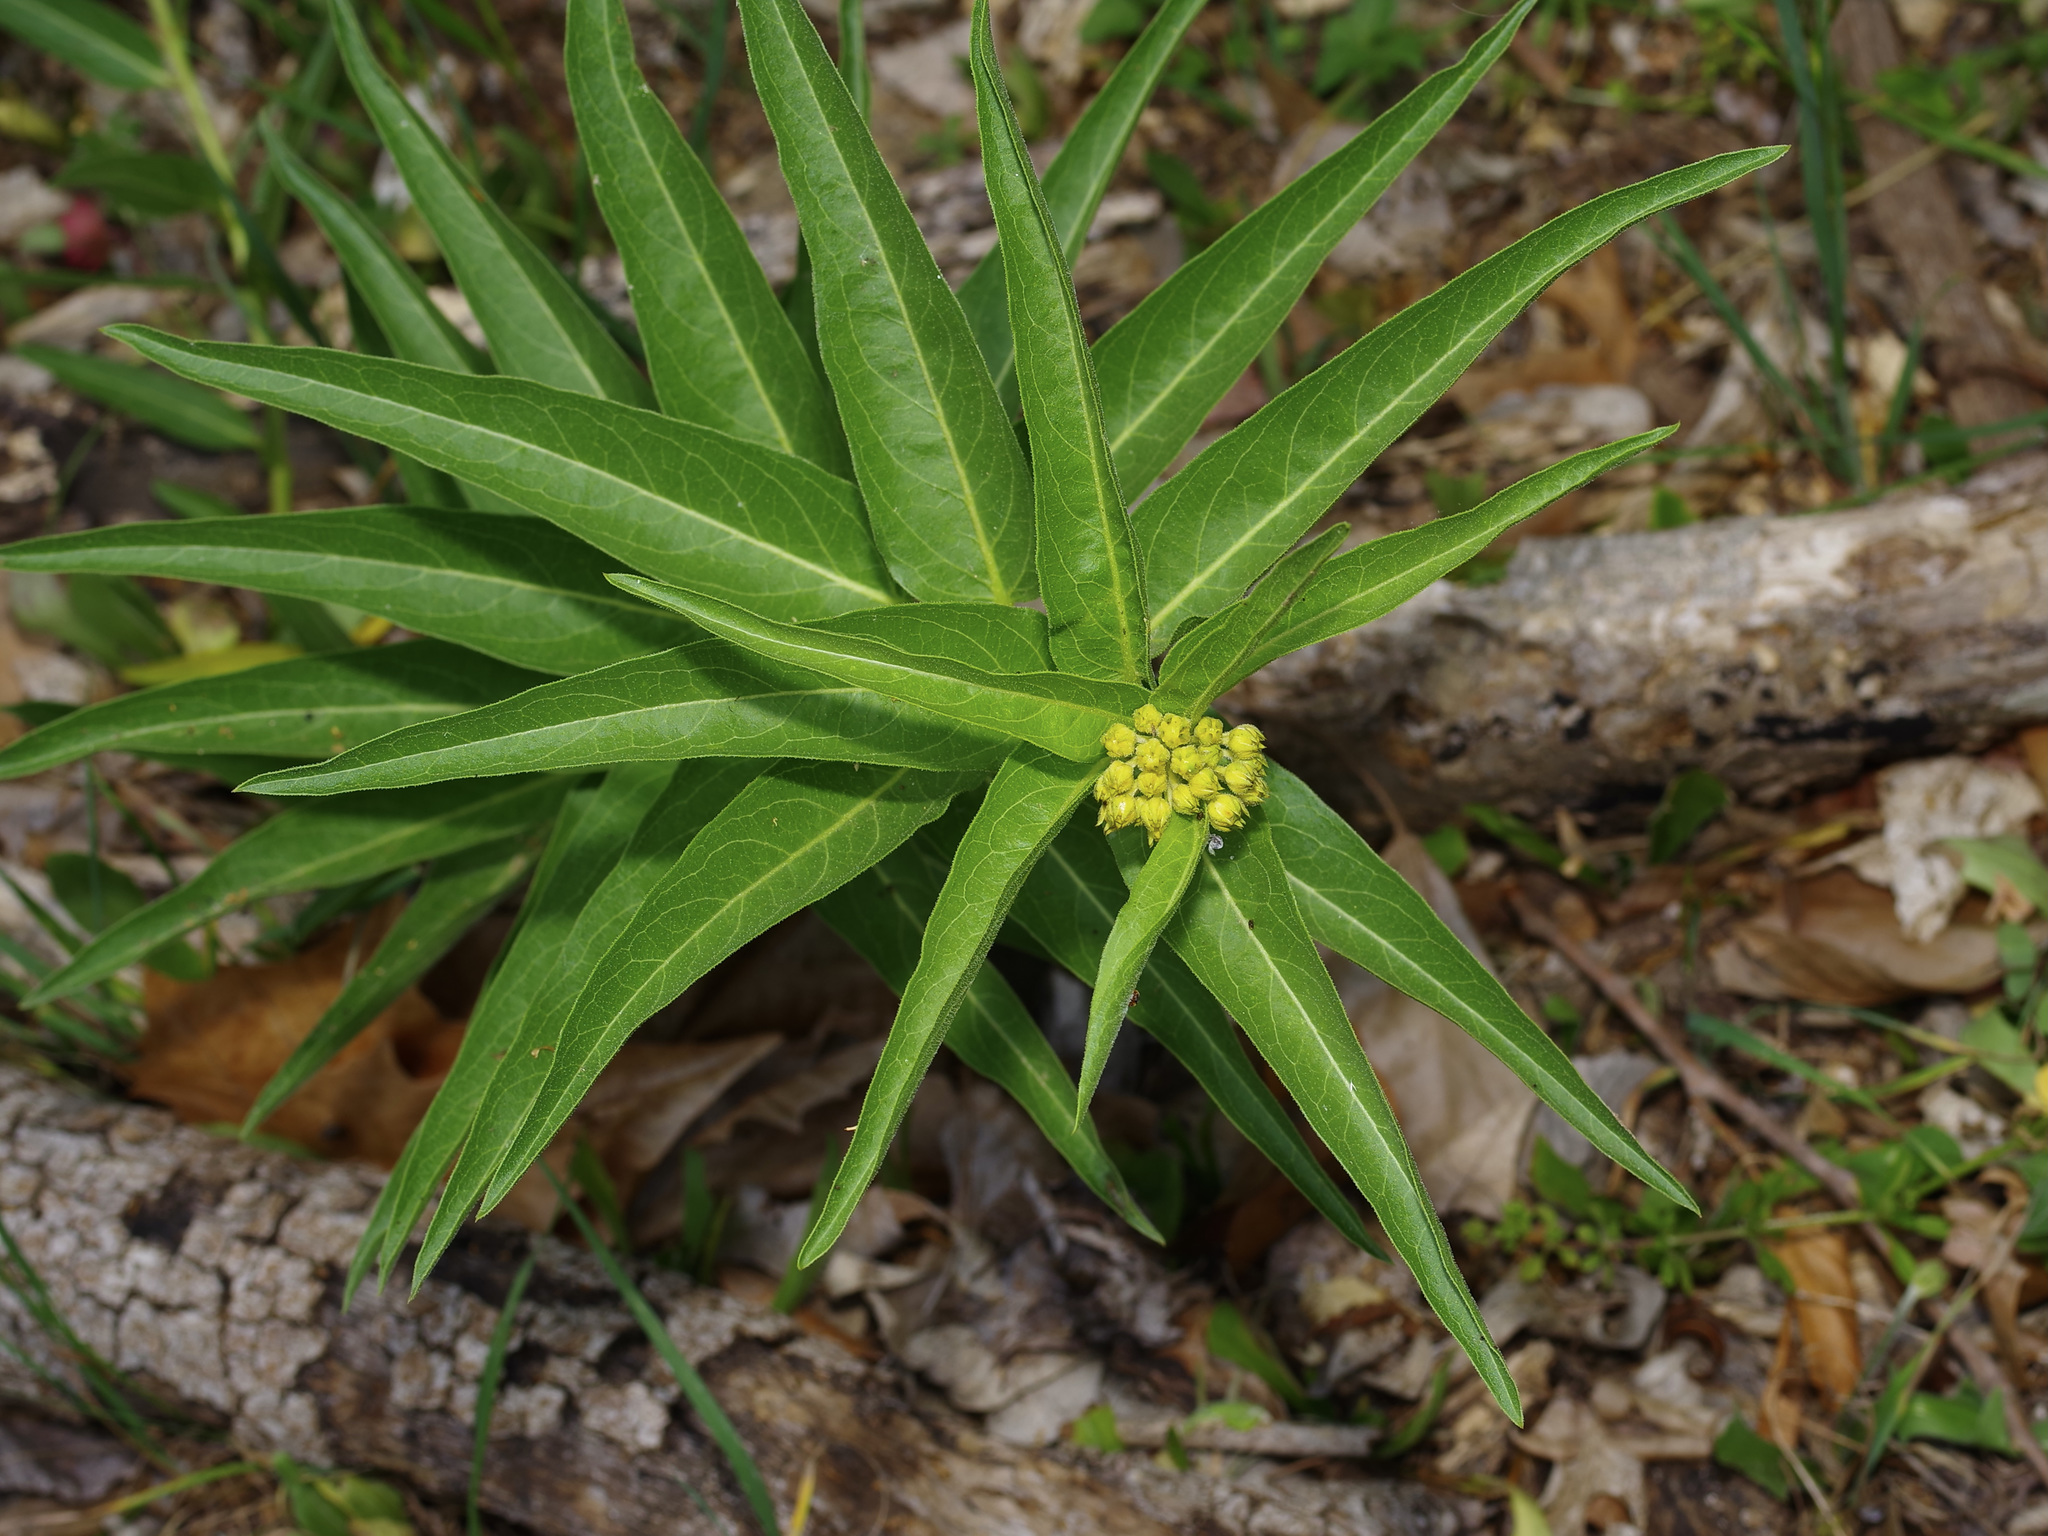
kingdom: Plantae
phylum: Tracheophyta
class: Magnoliopsida
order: Gentianales
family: Apocynaceae
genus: Asclepias
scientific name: Asclepias asperula
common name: Antelope horns
